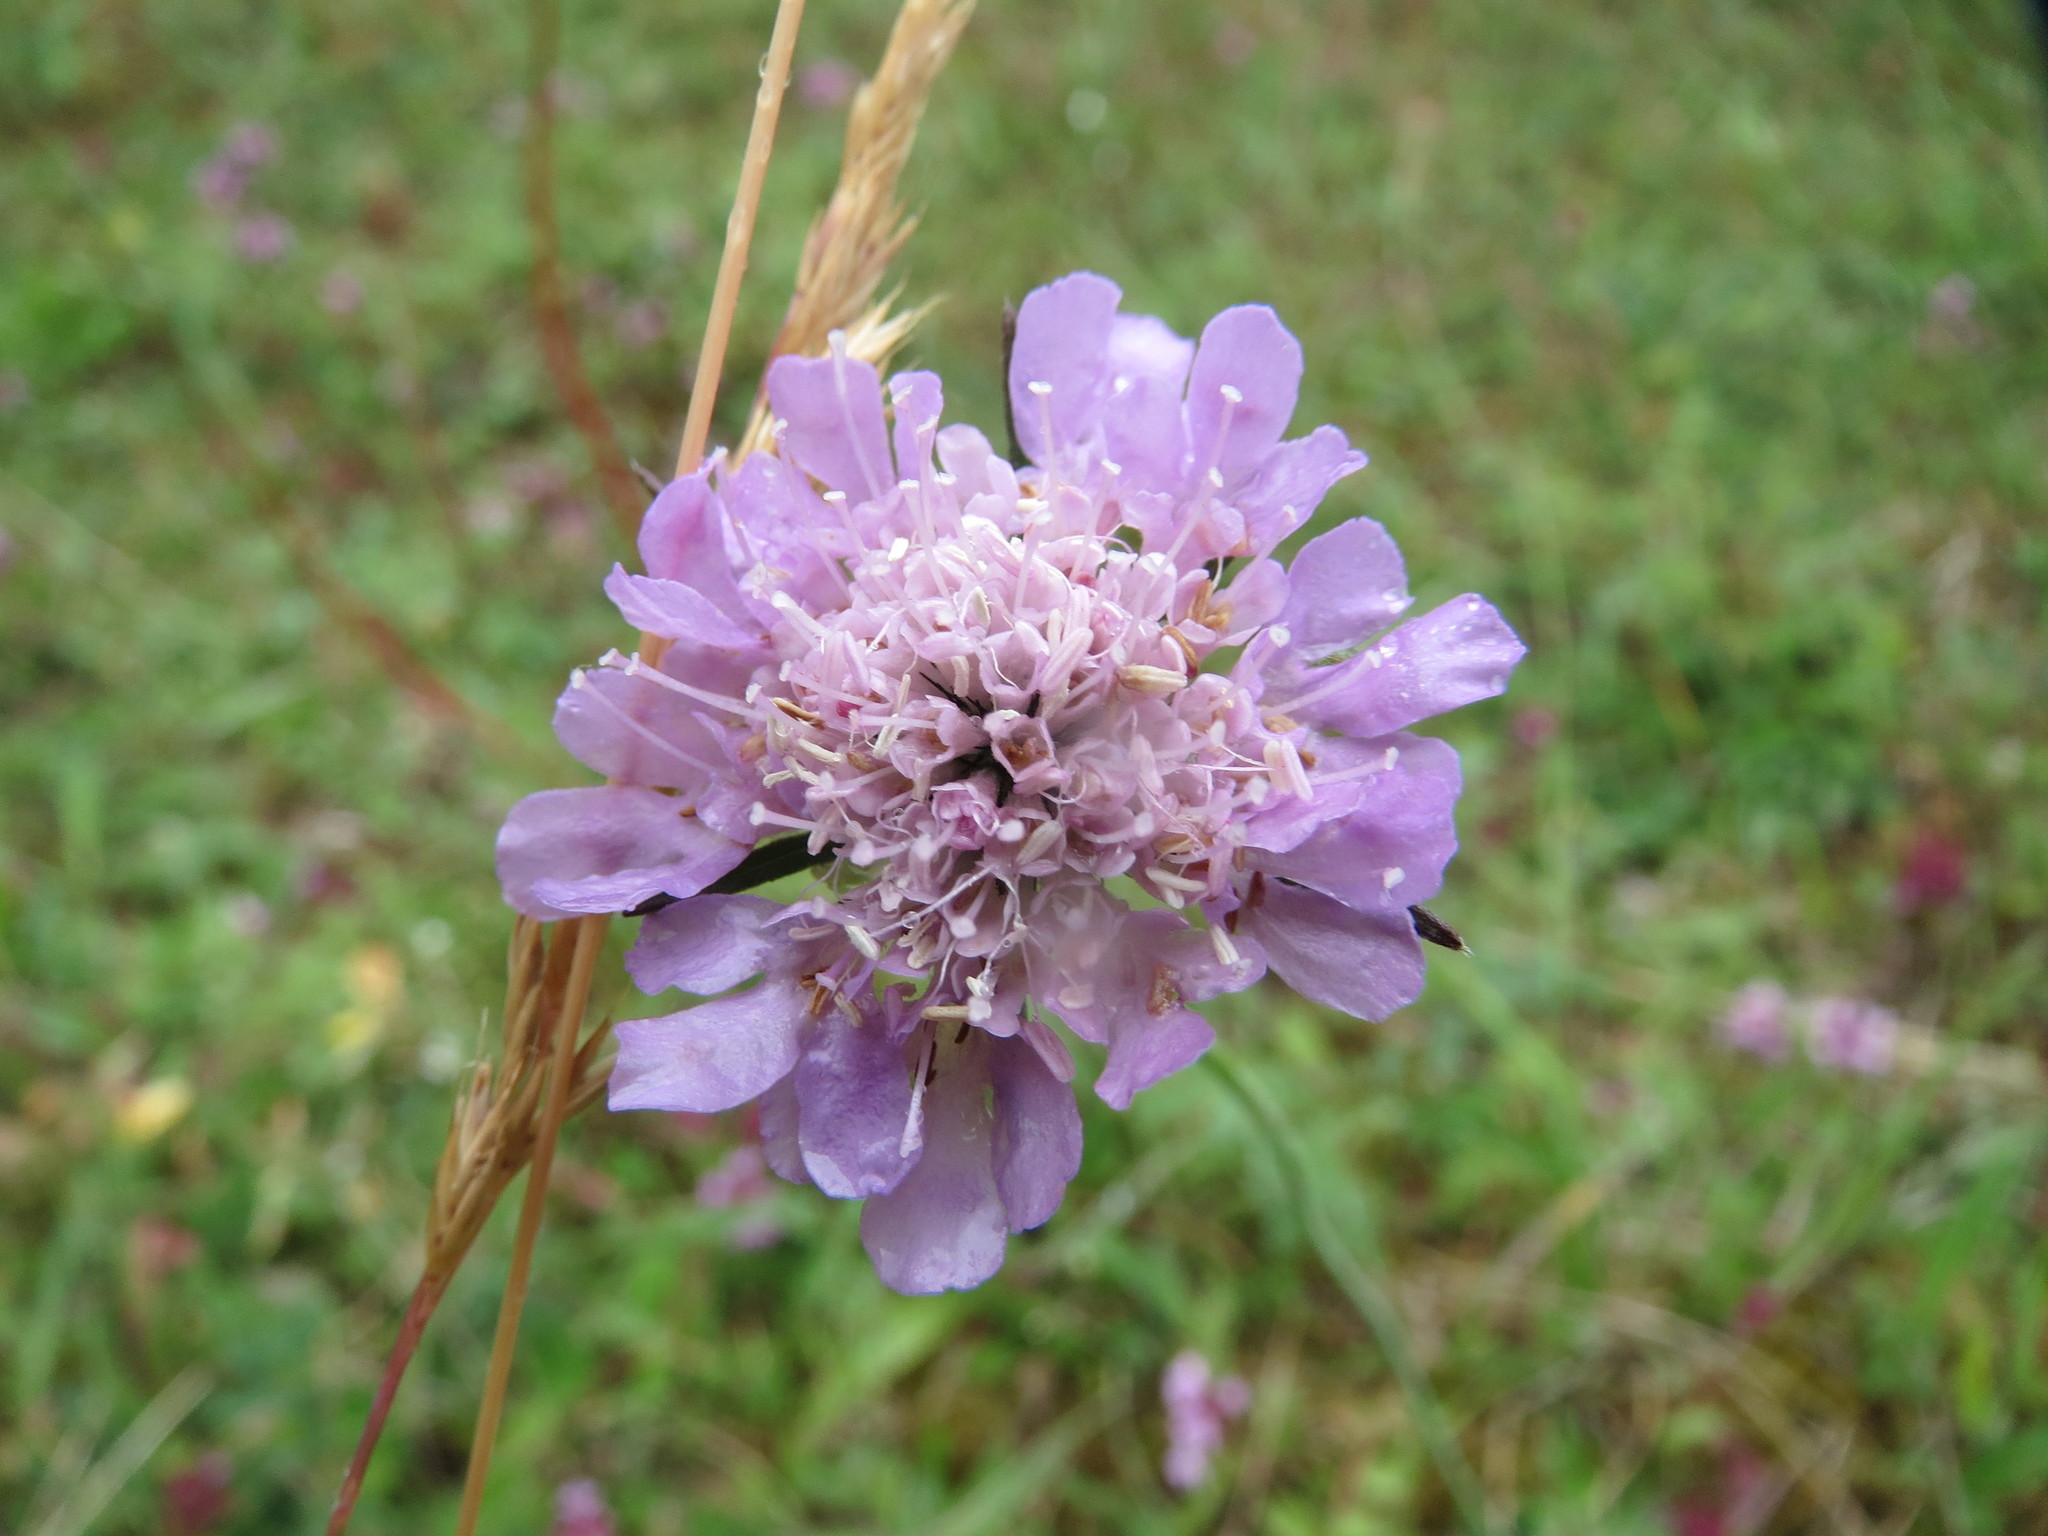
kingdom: Plantae
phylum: Tracheophyta
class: Magnoliopsida
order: Dipsacales
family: Caprifoliaceae
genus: Scabiosa
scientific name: Scabiosa columbaria
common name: Small scabious
